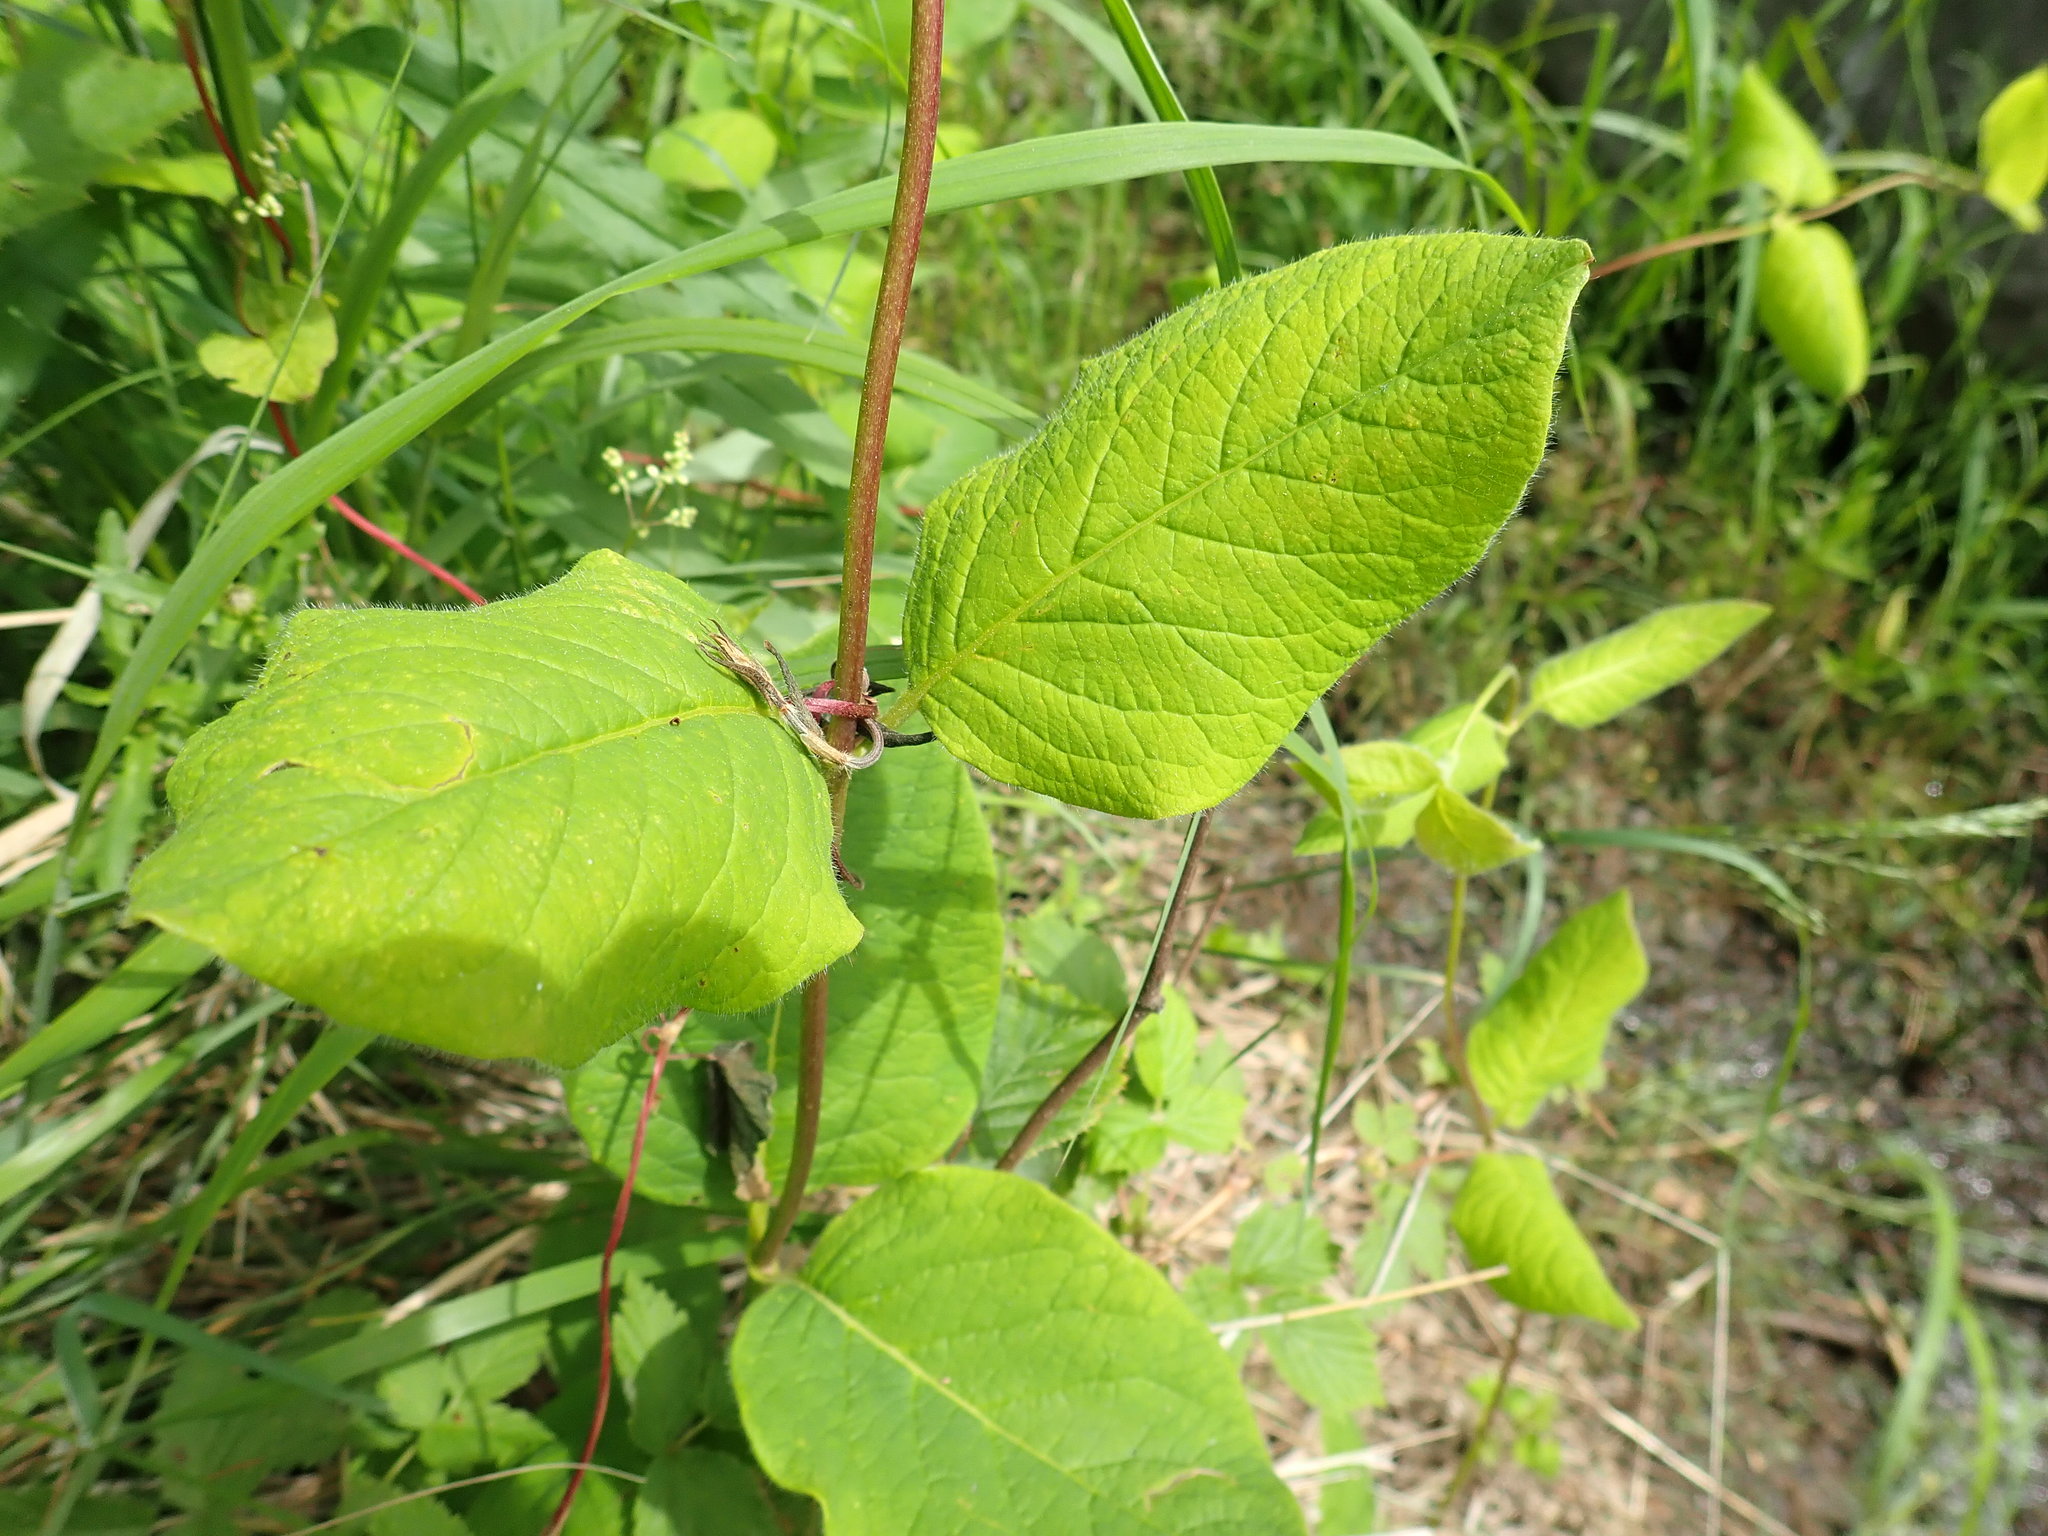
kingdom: Plantae
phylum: Tracheophyta
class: Magnoliopsida
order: Dipsacales
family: Caprifoliaceae
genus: Lonicera
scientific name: Lonicera hirsuta
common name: Hairy honeysuckle
